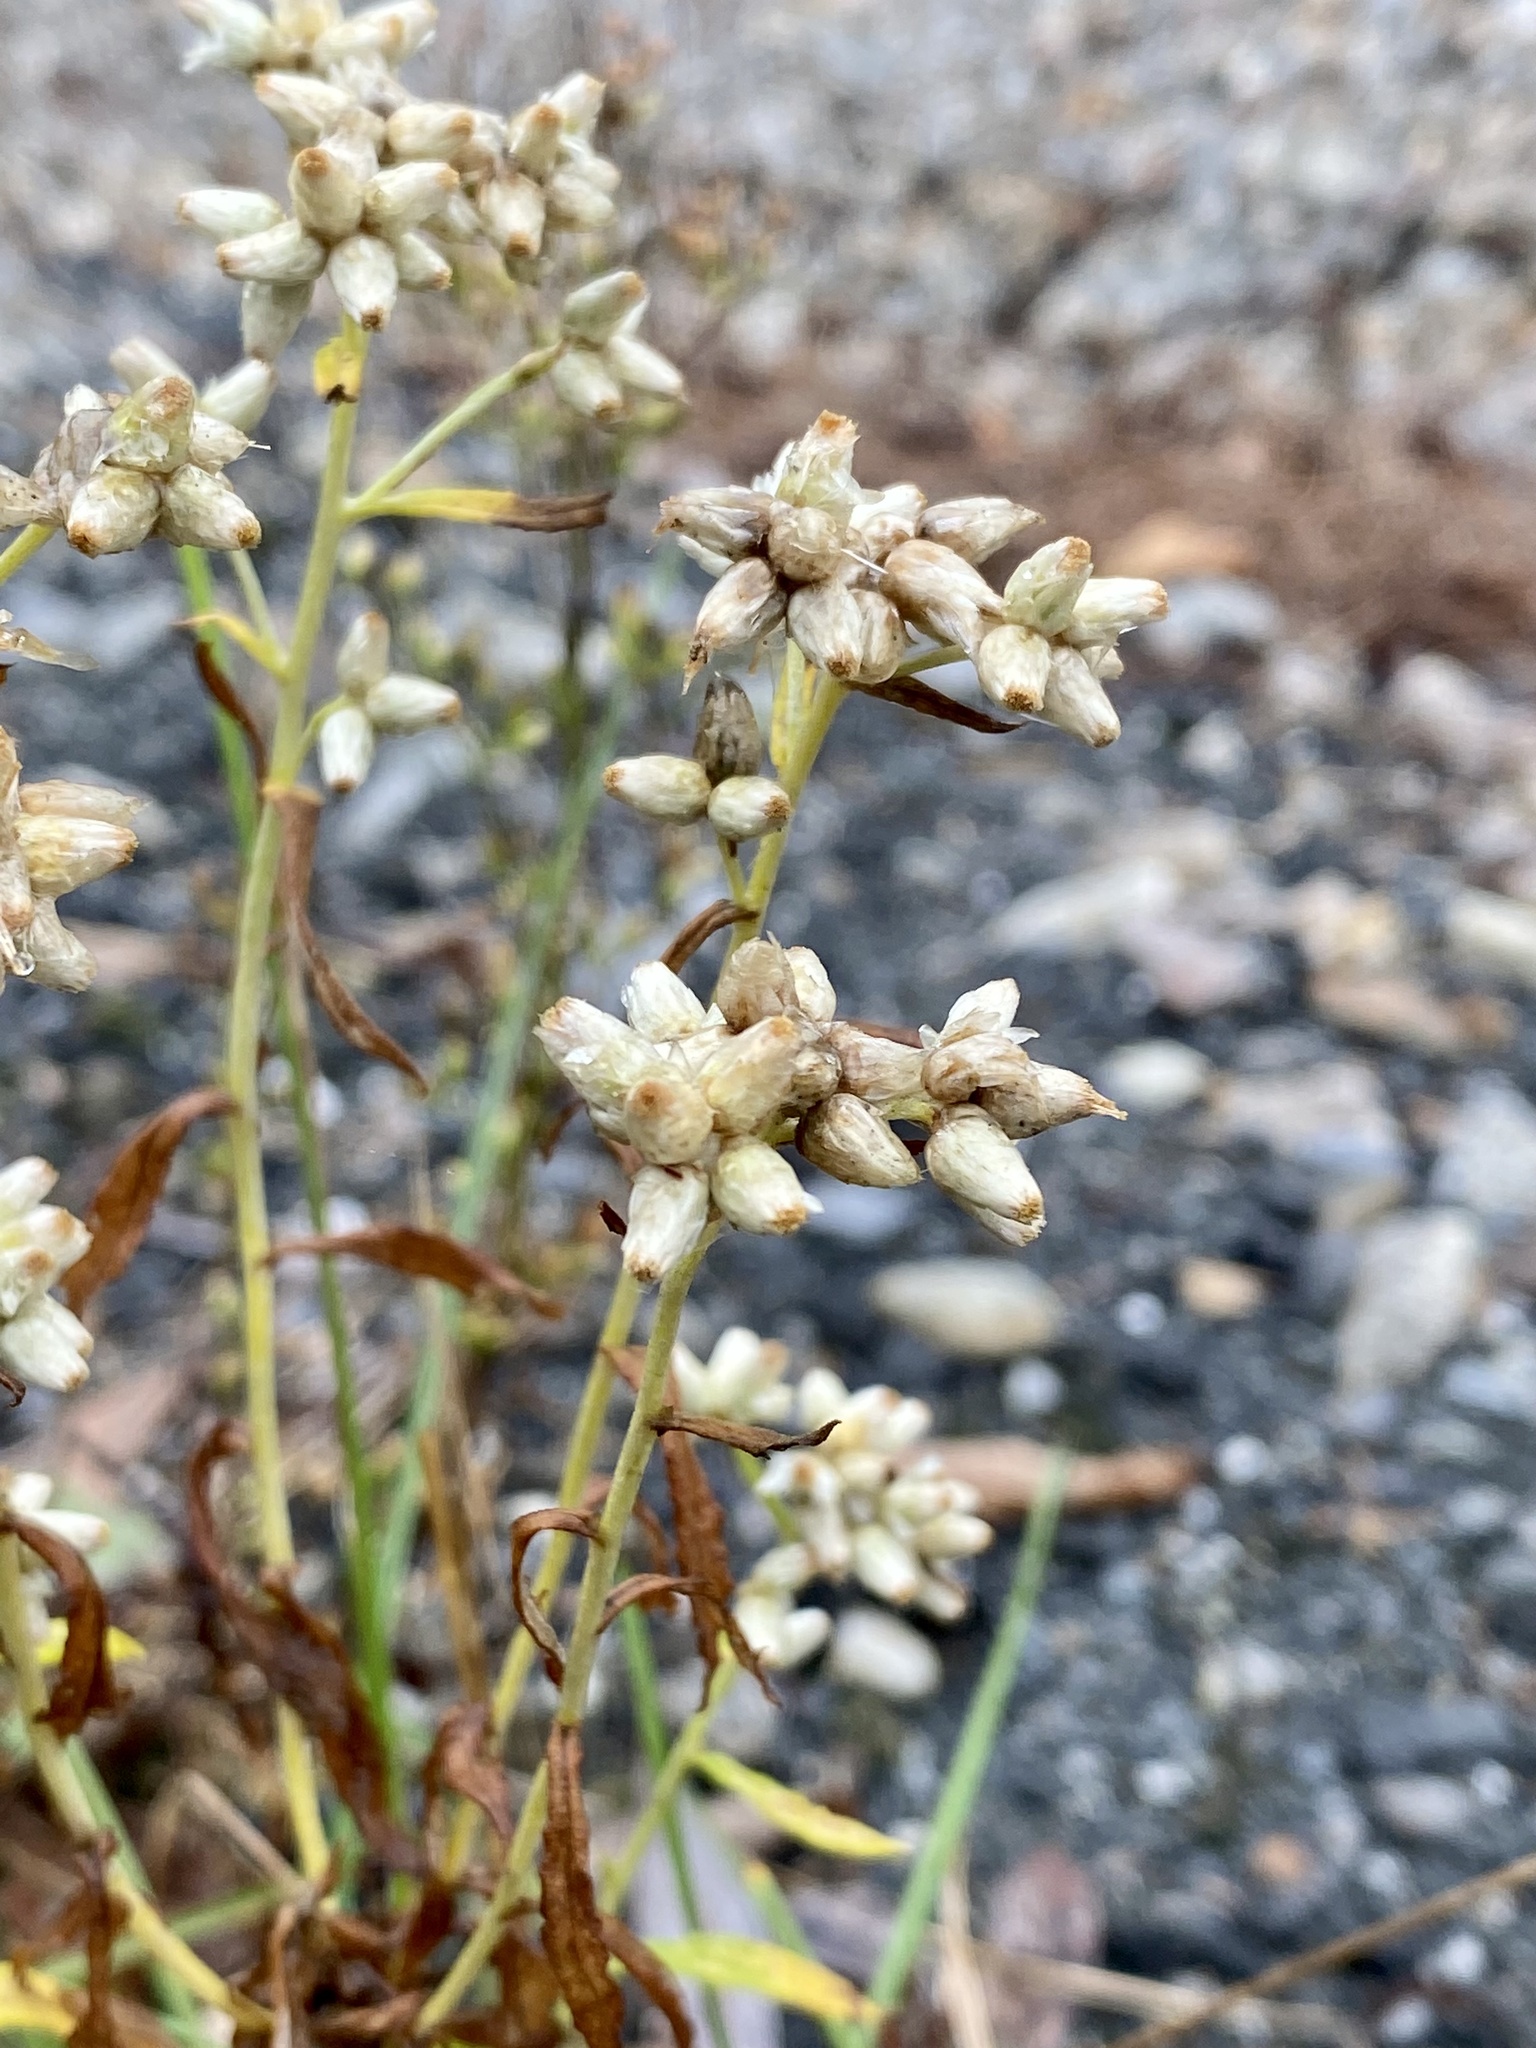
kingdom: Plantae
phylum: Tracheophyta
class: Magnoliopsida
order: Asterales
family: Asteraceae
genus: Pseudognaphalium
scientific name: Pseudognaphalium obtusifolium
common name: Eastern rabbit-tobacco
